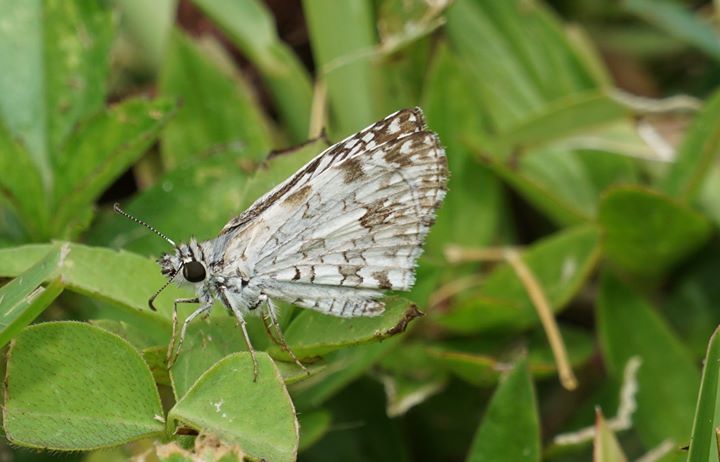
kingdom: Animalia
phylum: Arthropoda
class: Insecta
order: Lepidoptera
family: Hesperiidae
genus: Pyrgus
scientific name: Pyrgus oileus
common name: Tropical checkered-skipper
